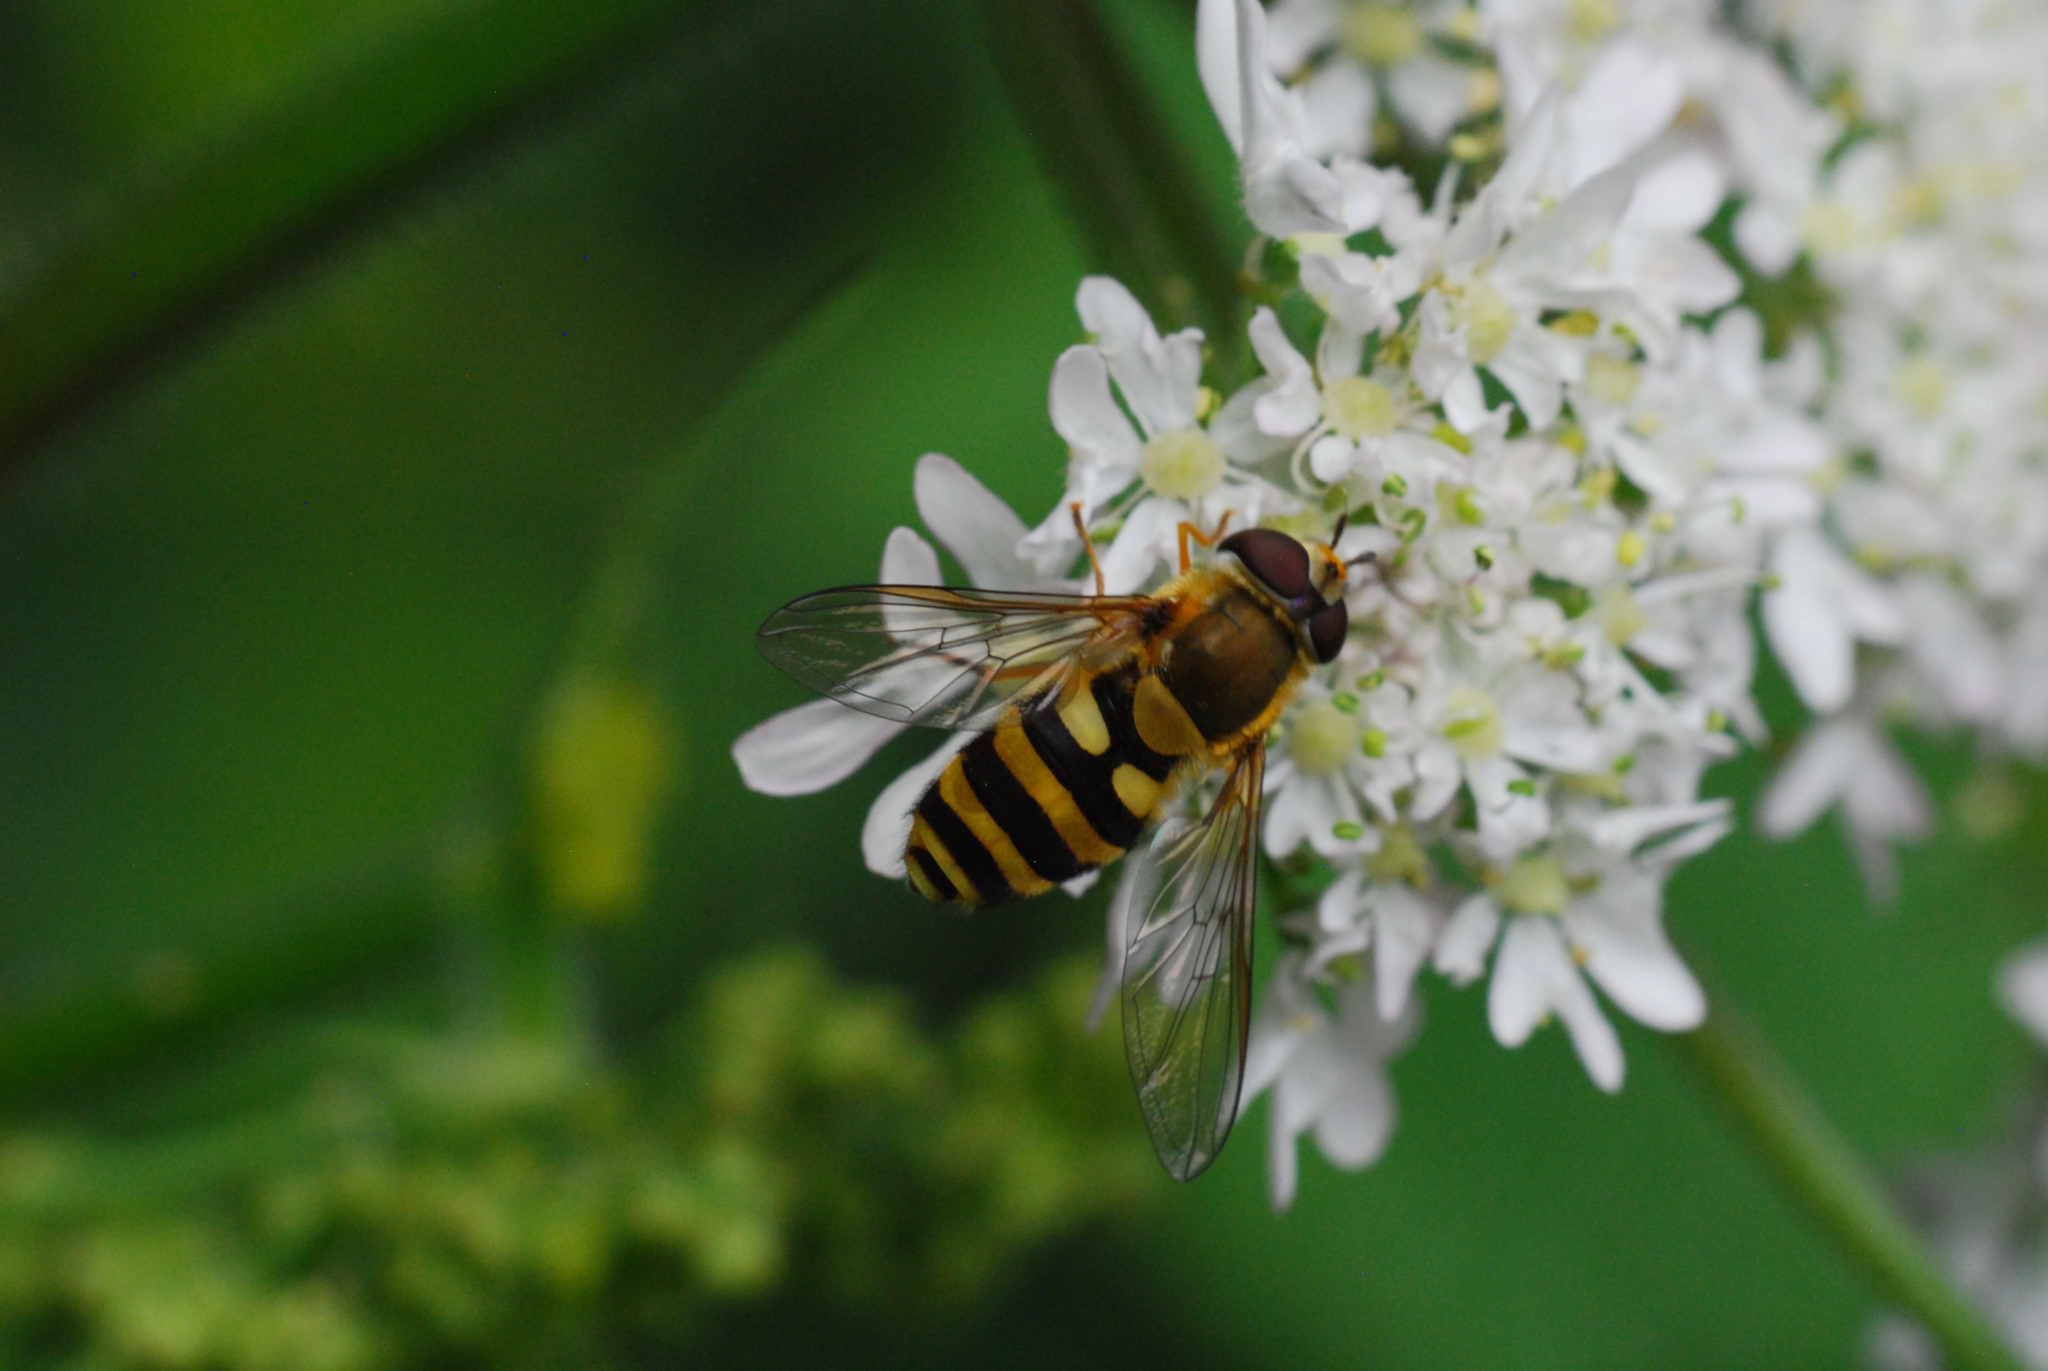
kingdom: Animalia
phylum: Arthropoda
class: Insecta
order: Diptera
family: Syrphidae
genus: Syrphus
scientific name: Syrphus ribesii
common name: Common flower fly
